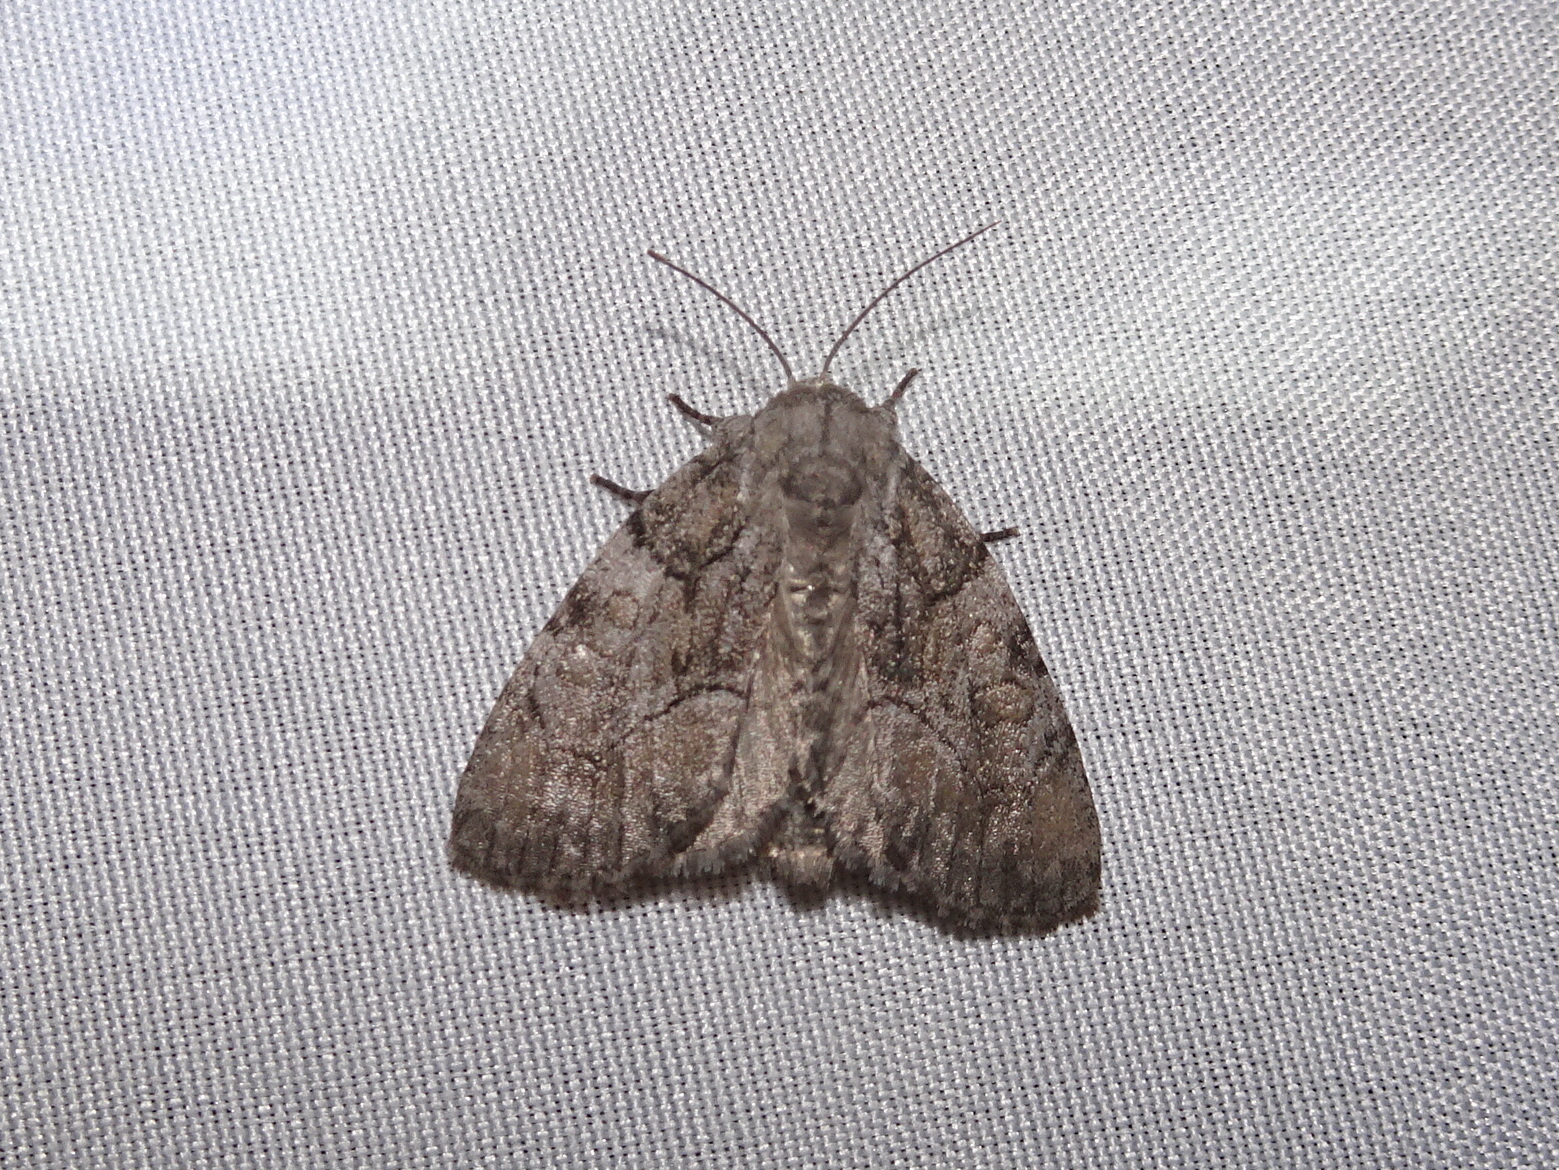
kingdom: Animalia
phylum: Arthropoda
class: Insecta
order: Lepidoptera
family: Noctuidae
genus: Raphia
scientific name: Raphia frater
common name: Brother
